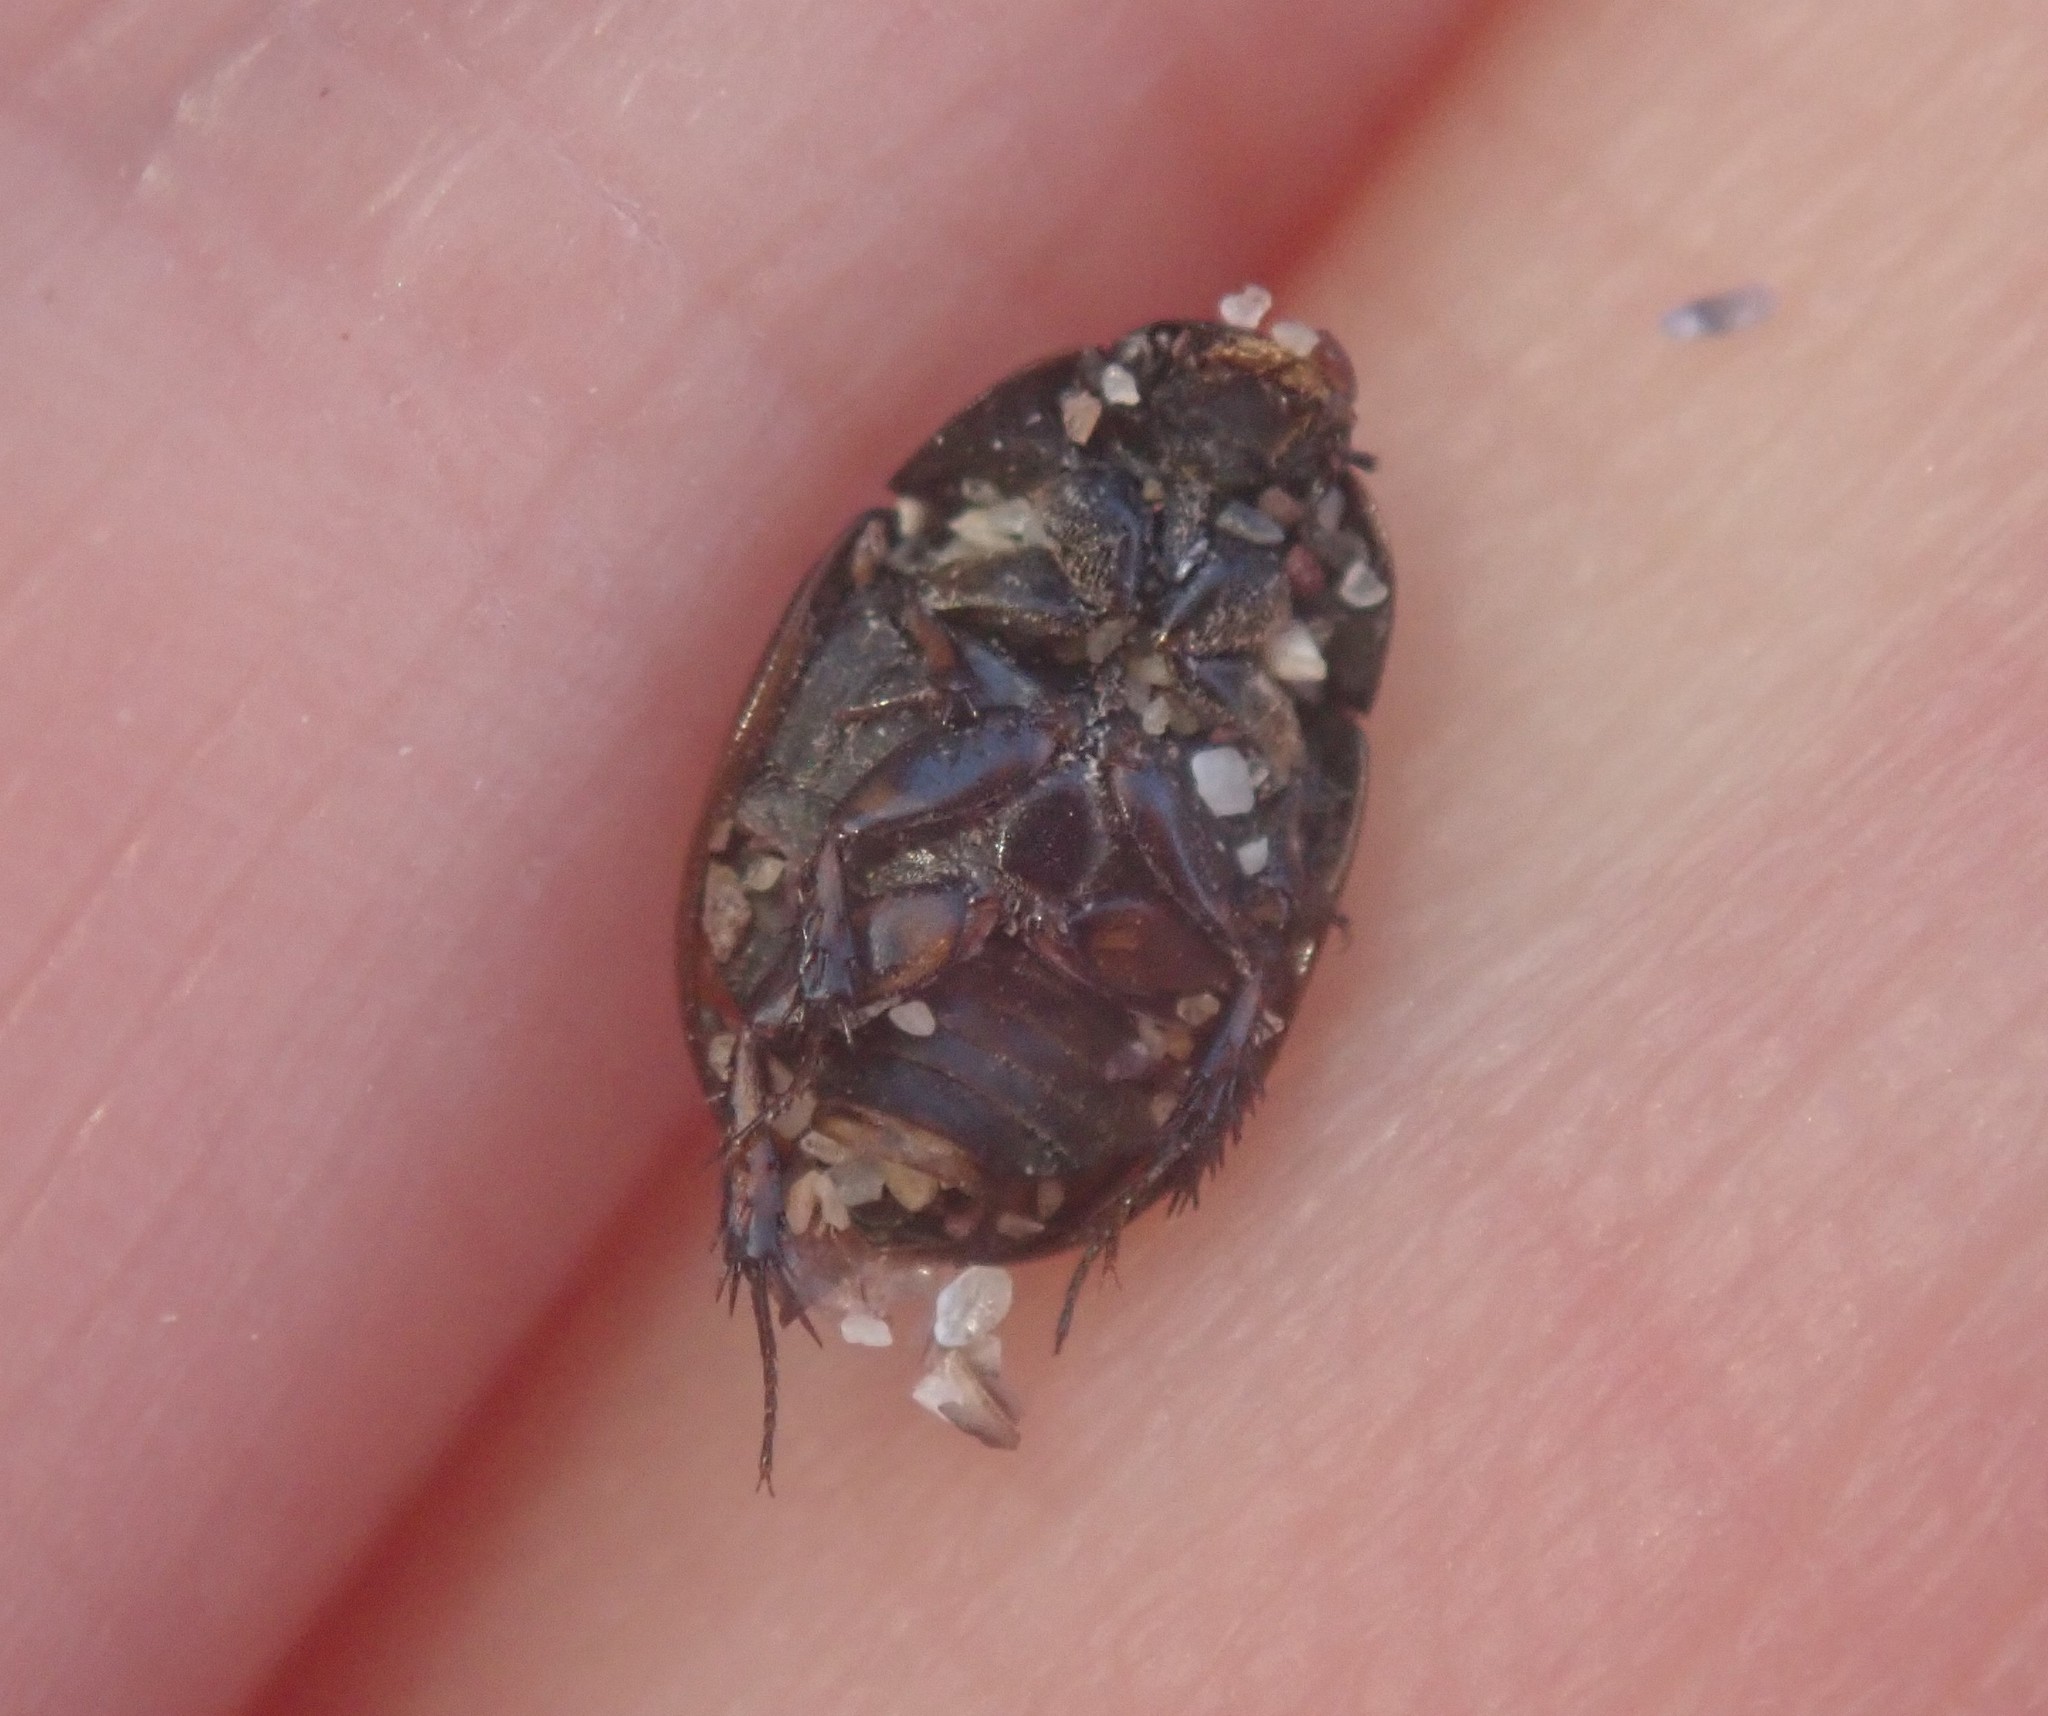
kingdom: Animalia
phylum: Arthropoda
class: Insecta
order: Coleoptera
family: Hydrophilidae
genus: Sphaeridium
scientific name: Sphaeridium scarabaeoides
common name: Water scavenger beetle
